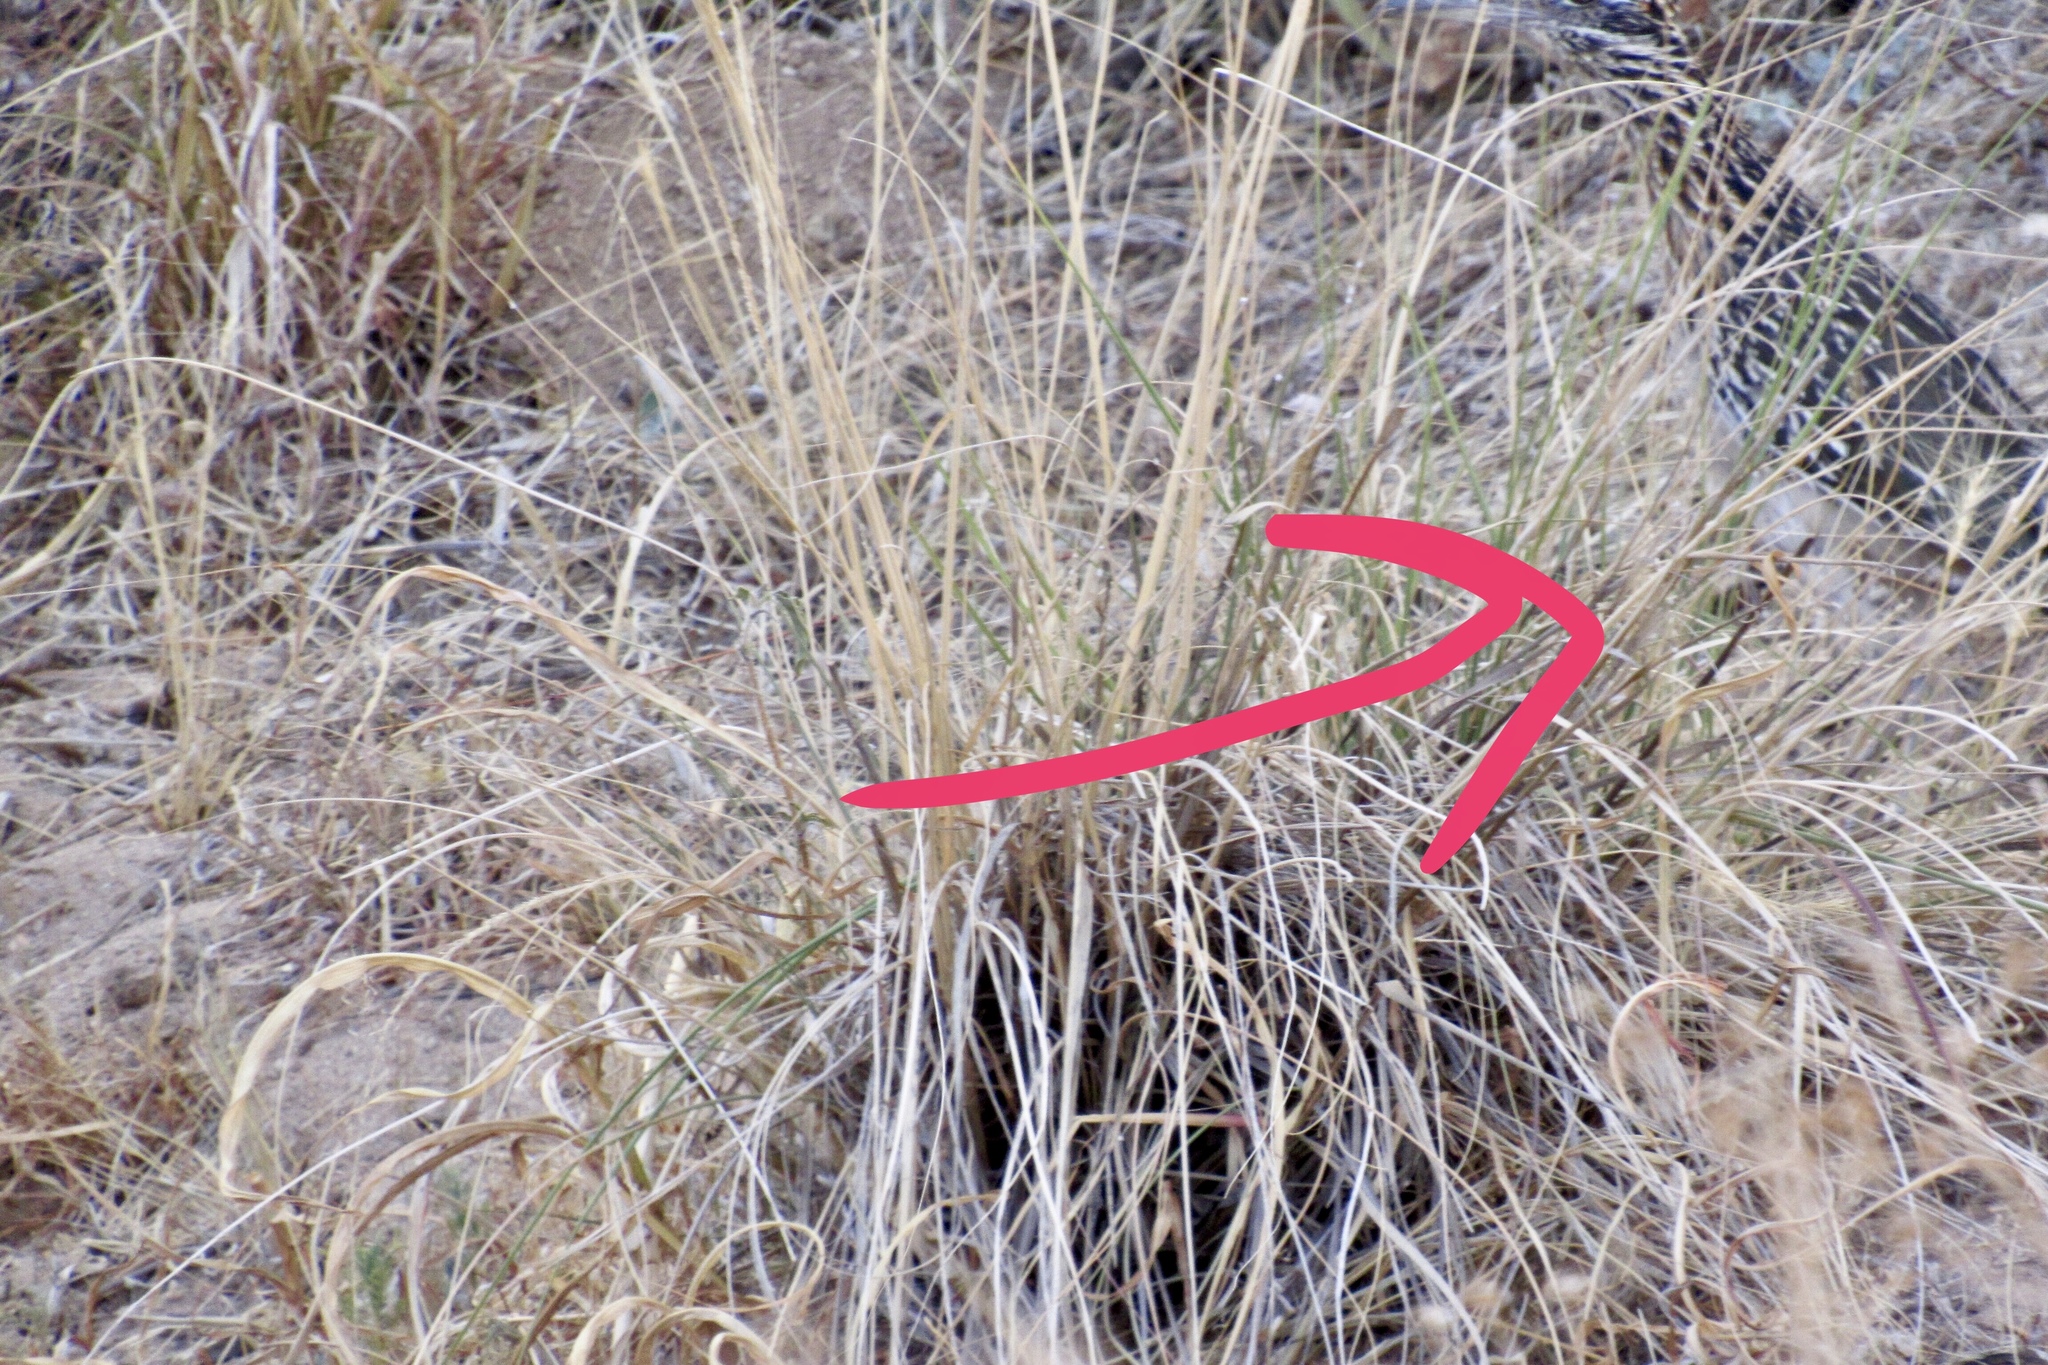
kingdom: Animalia
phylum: Chordata
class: Aves
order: Cuculiformes
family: Cuculidae
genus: Geococcyx
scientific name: Geococcyx californianus
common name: Greater roadrunner
